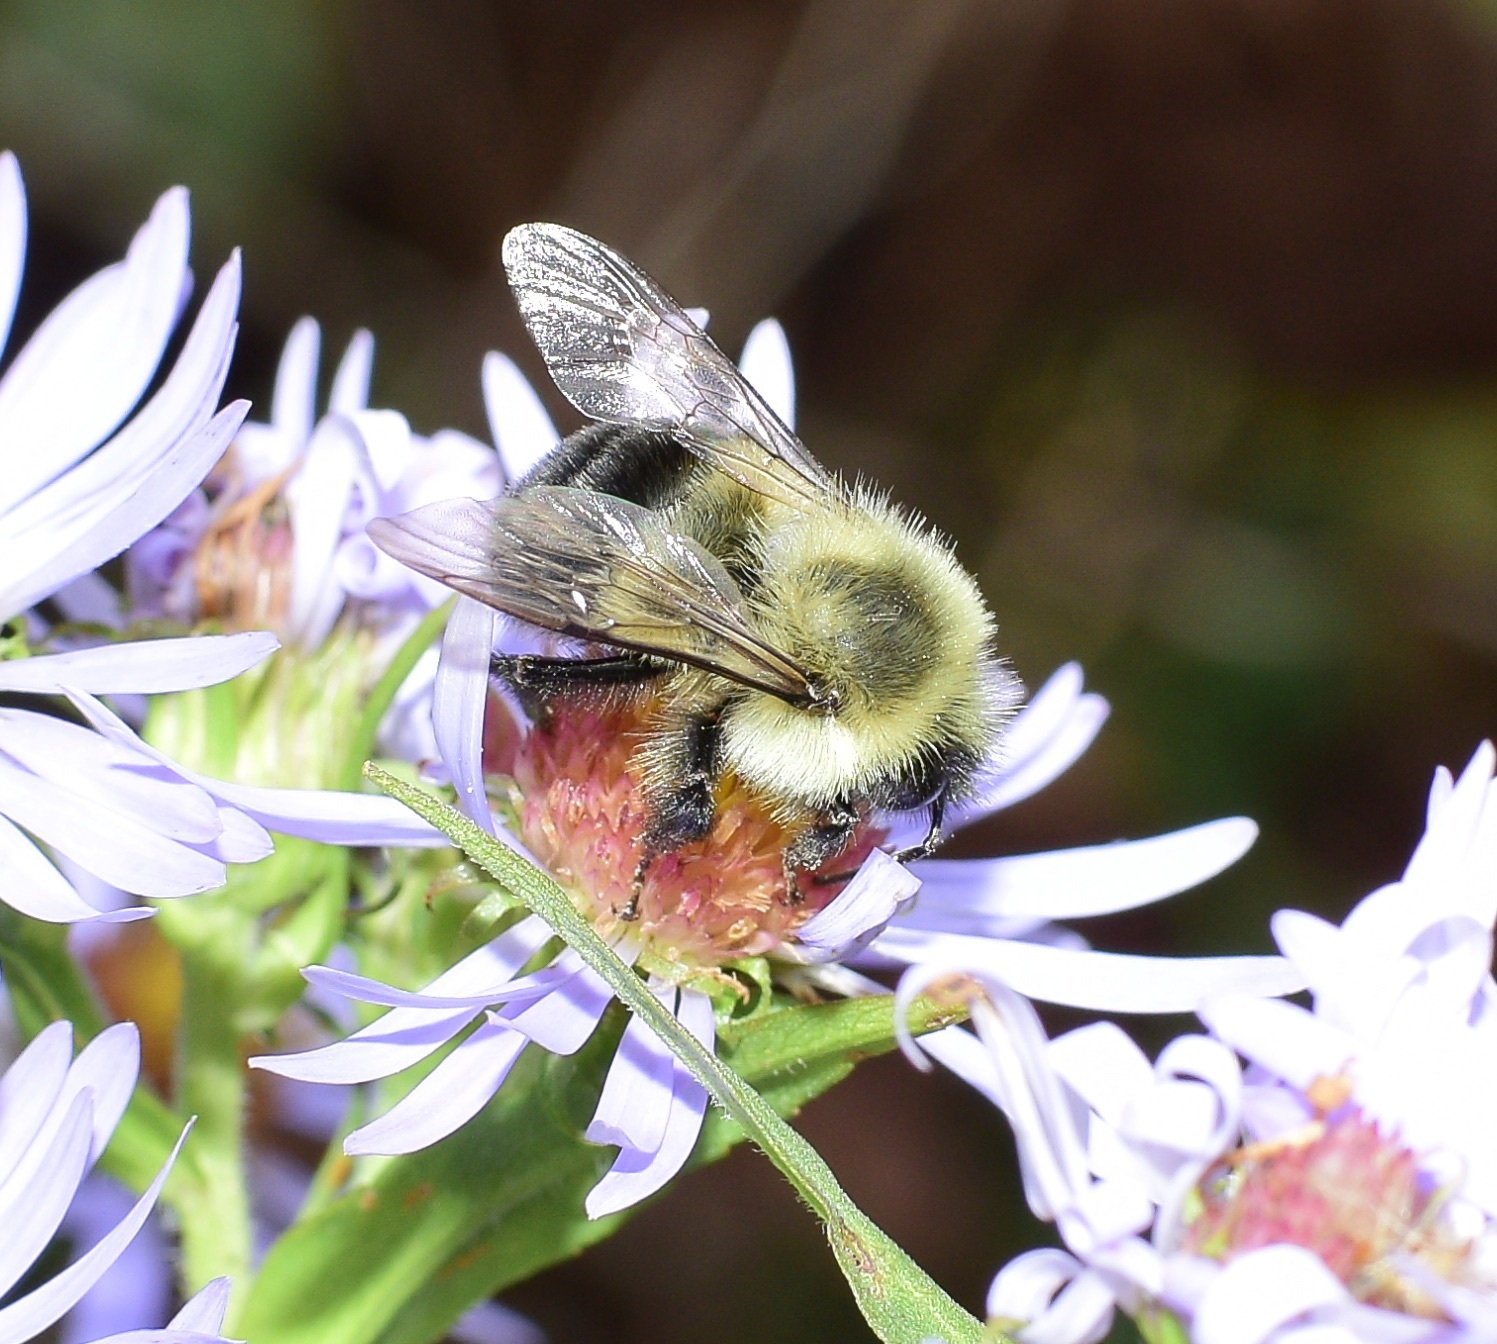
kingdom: Animalia
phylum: Arthropoda
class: Insecta
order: Hymenoptera
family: Apidae
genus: Bombus
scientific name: Bombus impatiens
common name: Common eastern bumble bee
